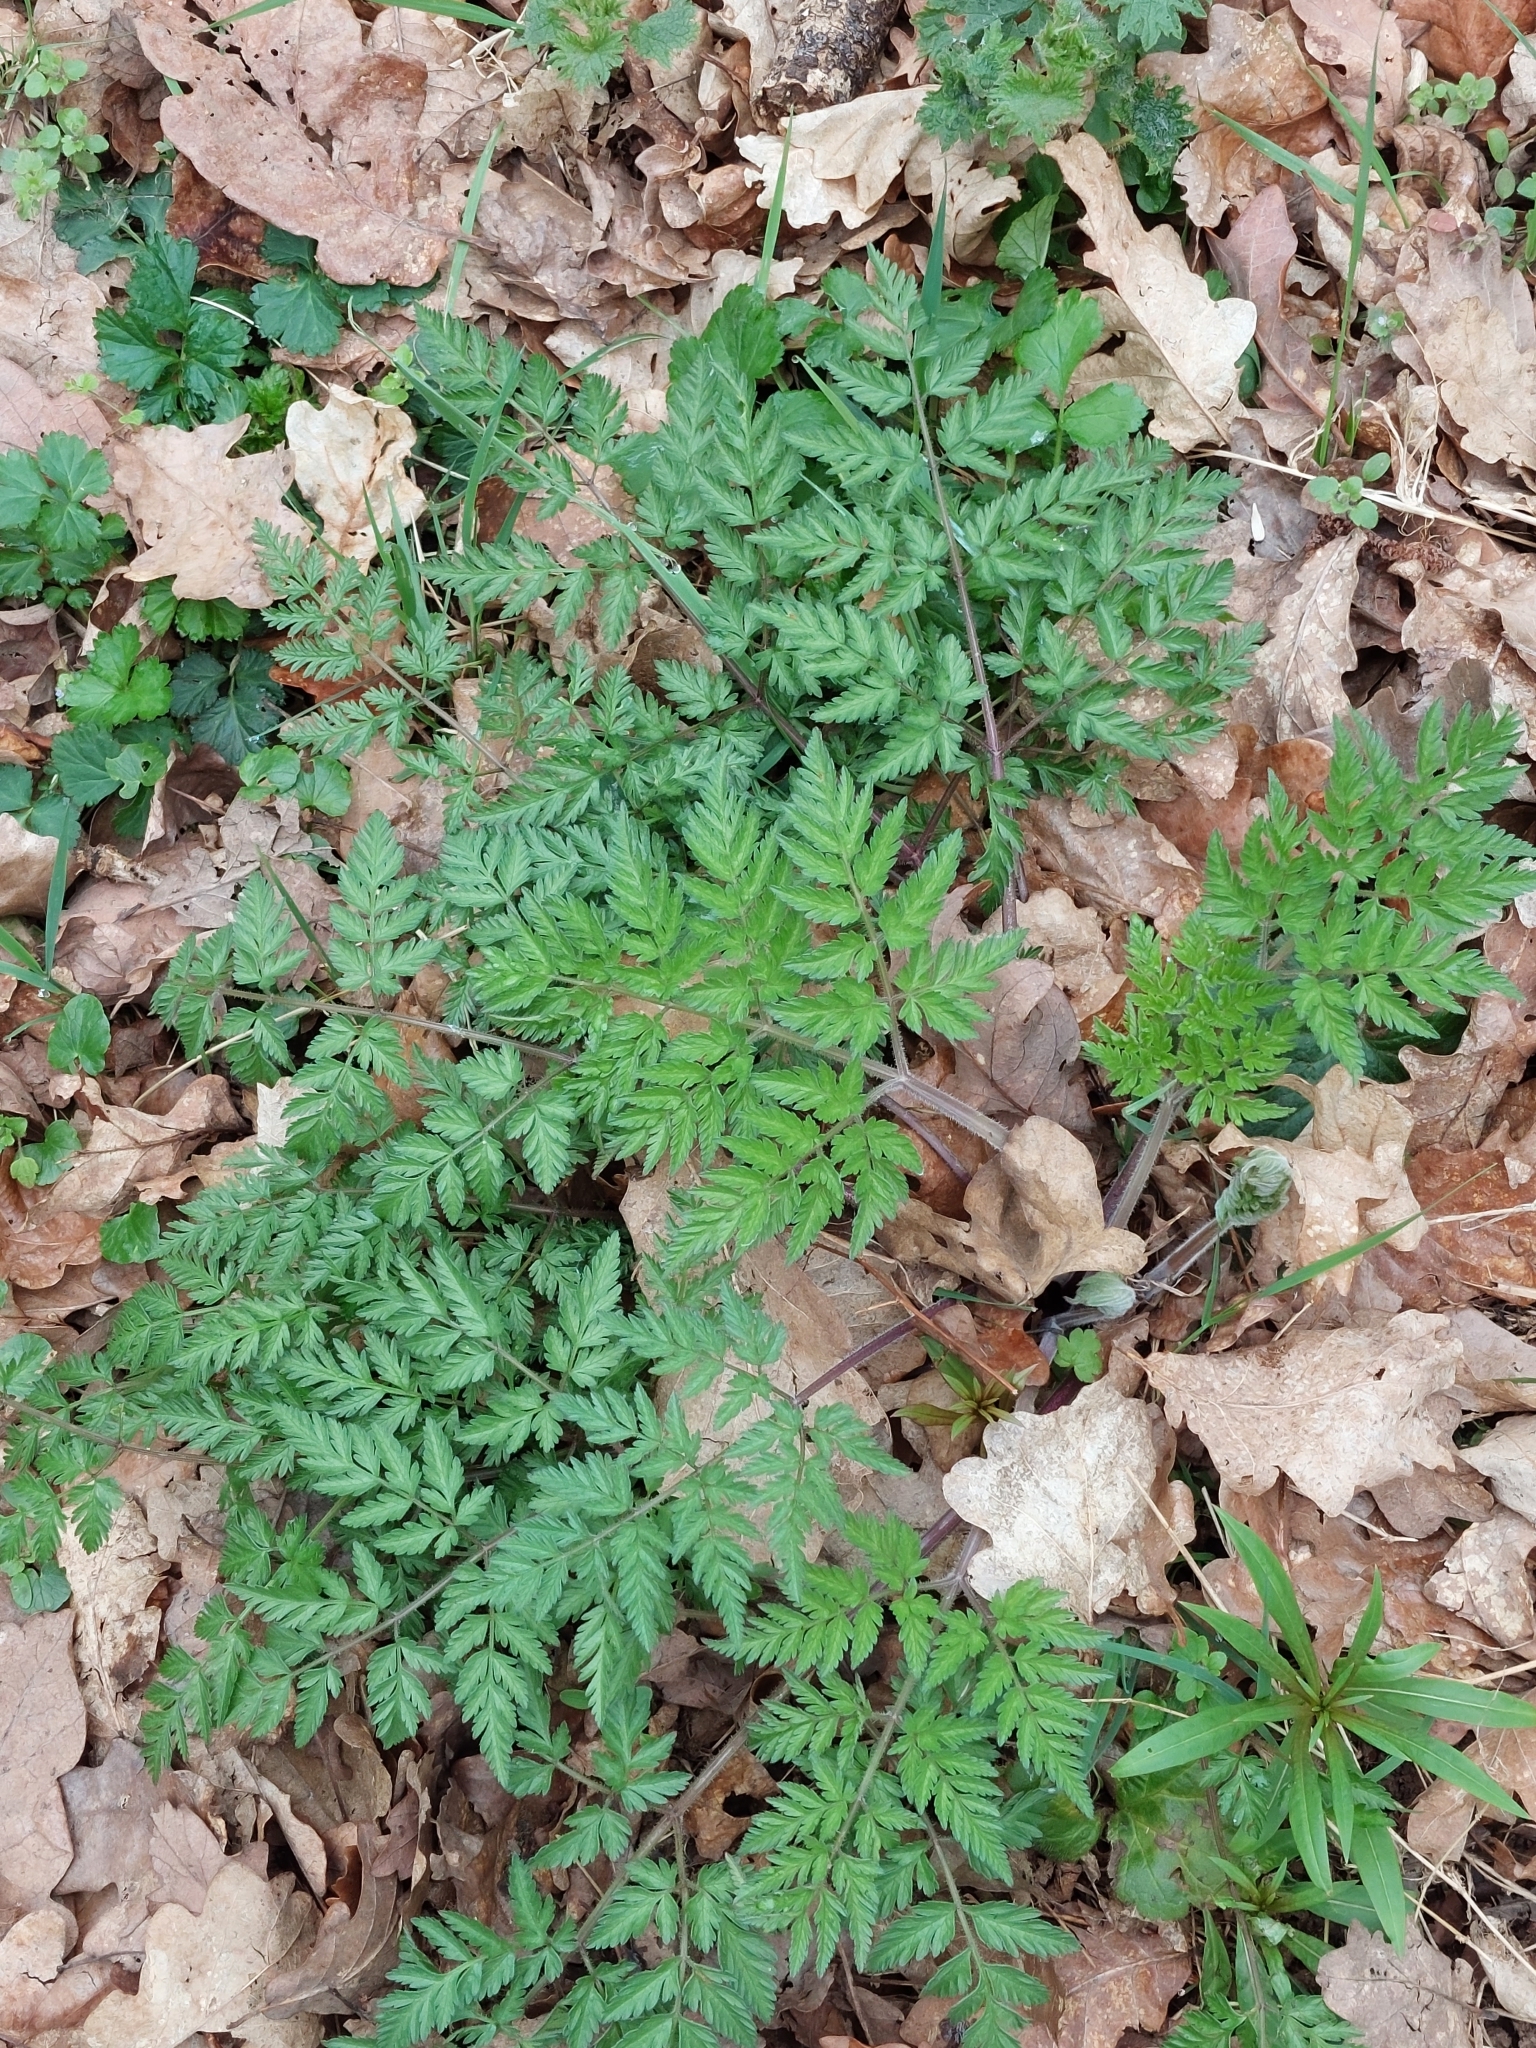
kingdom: Plantae
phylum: Tracheophyta
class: Magnoliopsida
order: Apiales
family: Apiaceae
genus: Anthriscus
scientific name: Anthriscus sylvestris
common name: Cow parsley
